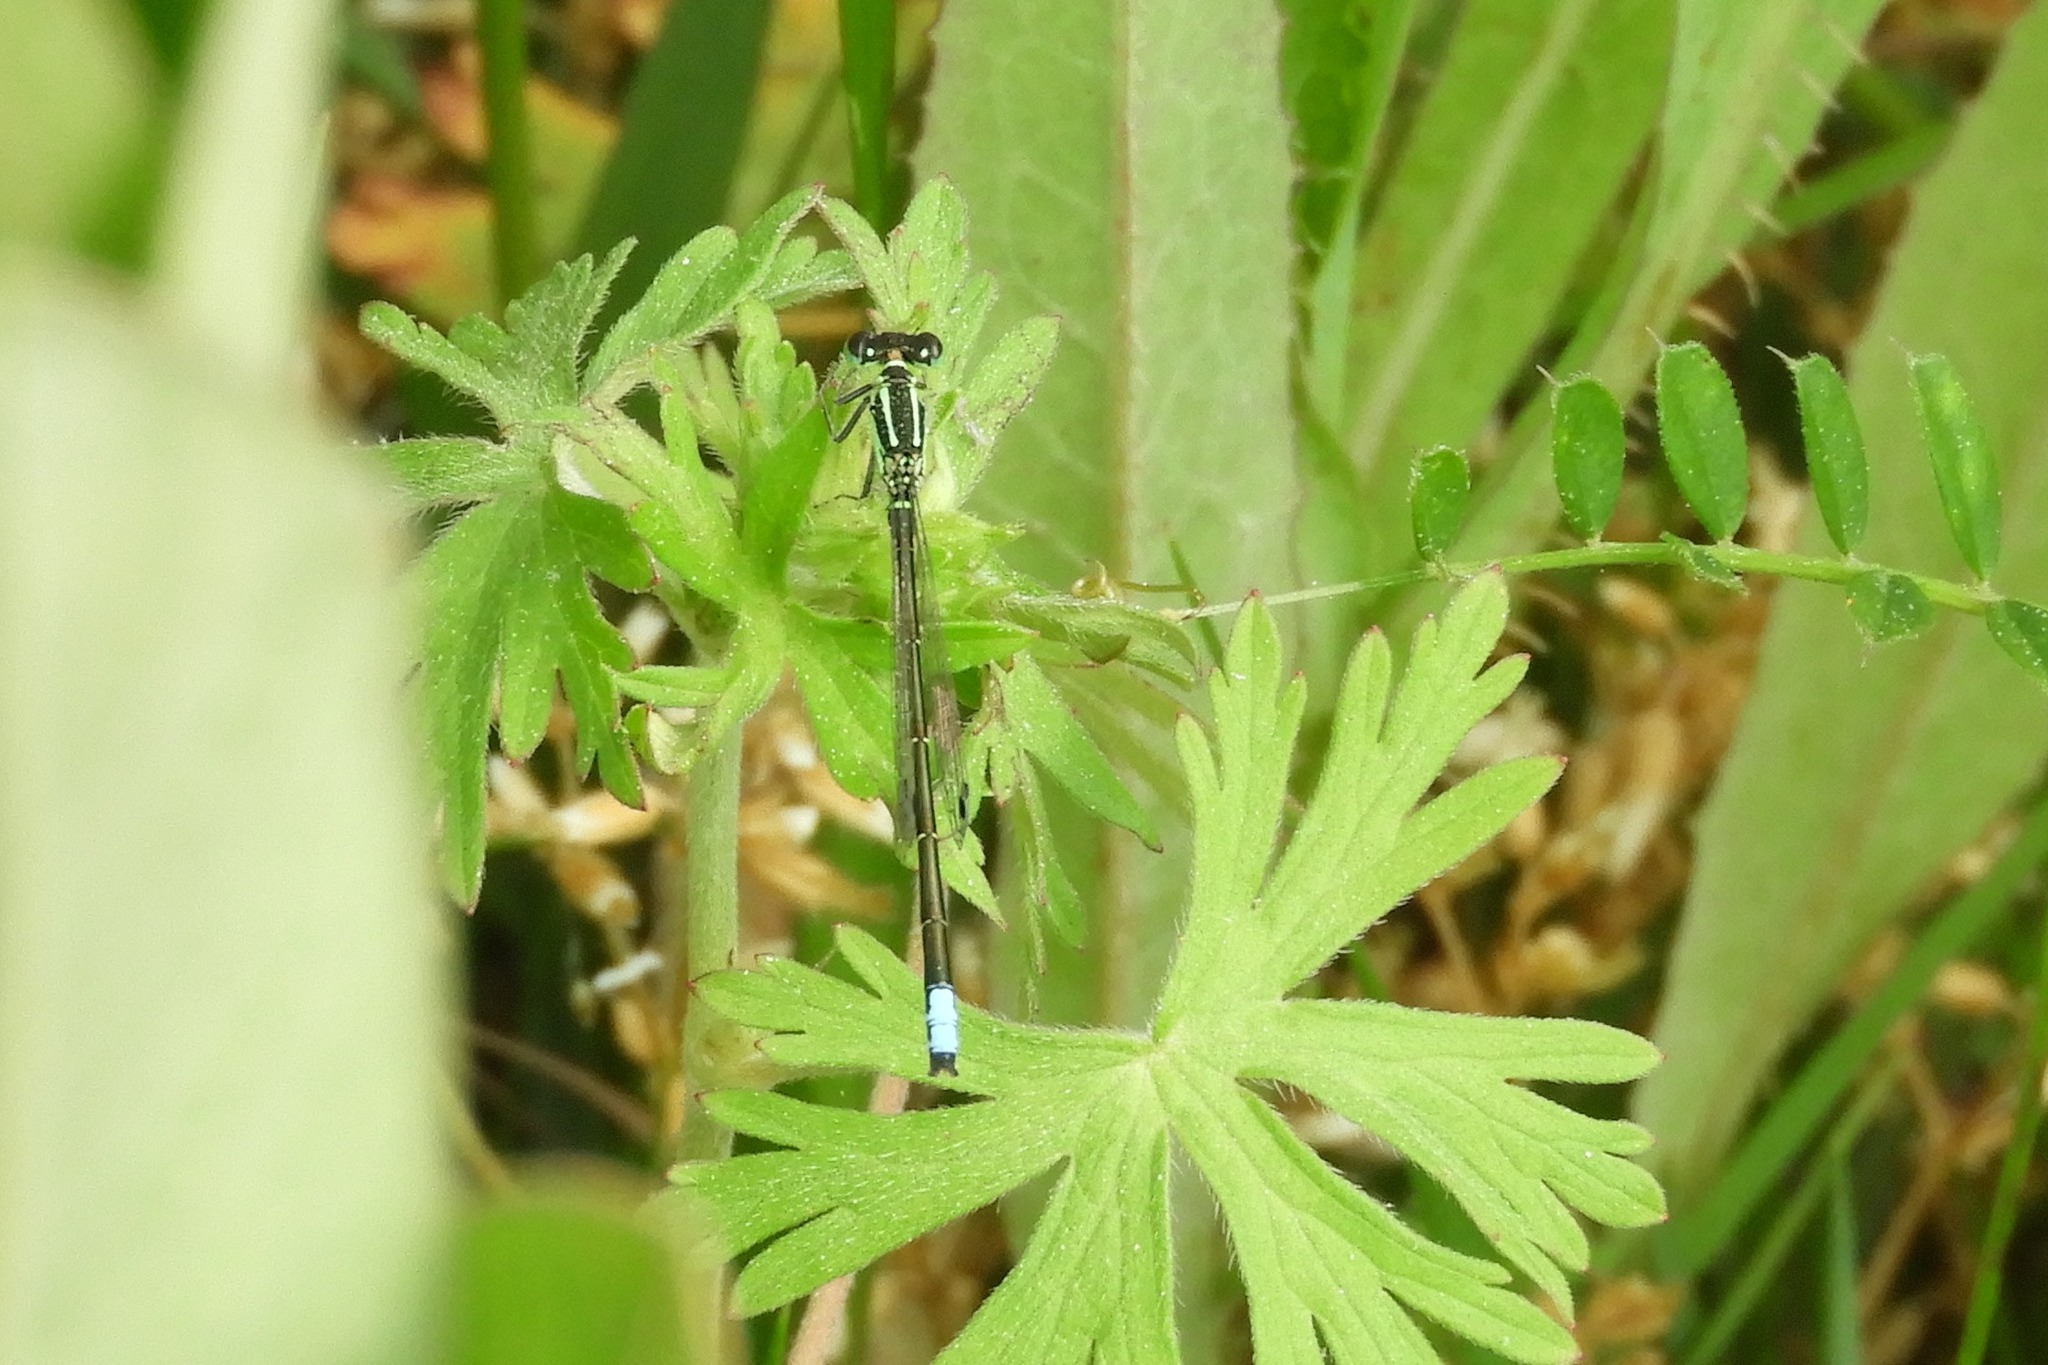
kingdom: Animalia
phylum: Arthropoda
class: Insecta
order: Odonata
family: Coenagrionidae
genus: Ischnura
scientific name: Ischnura verticalis
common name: Eastern forktail
